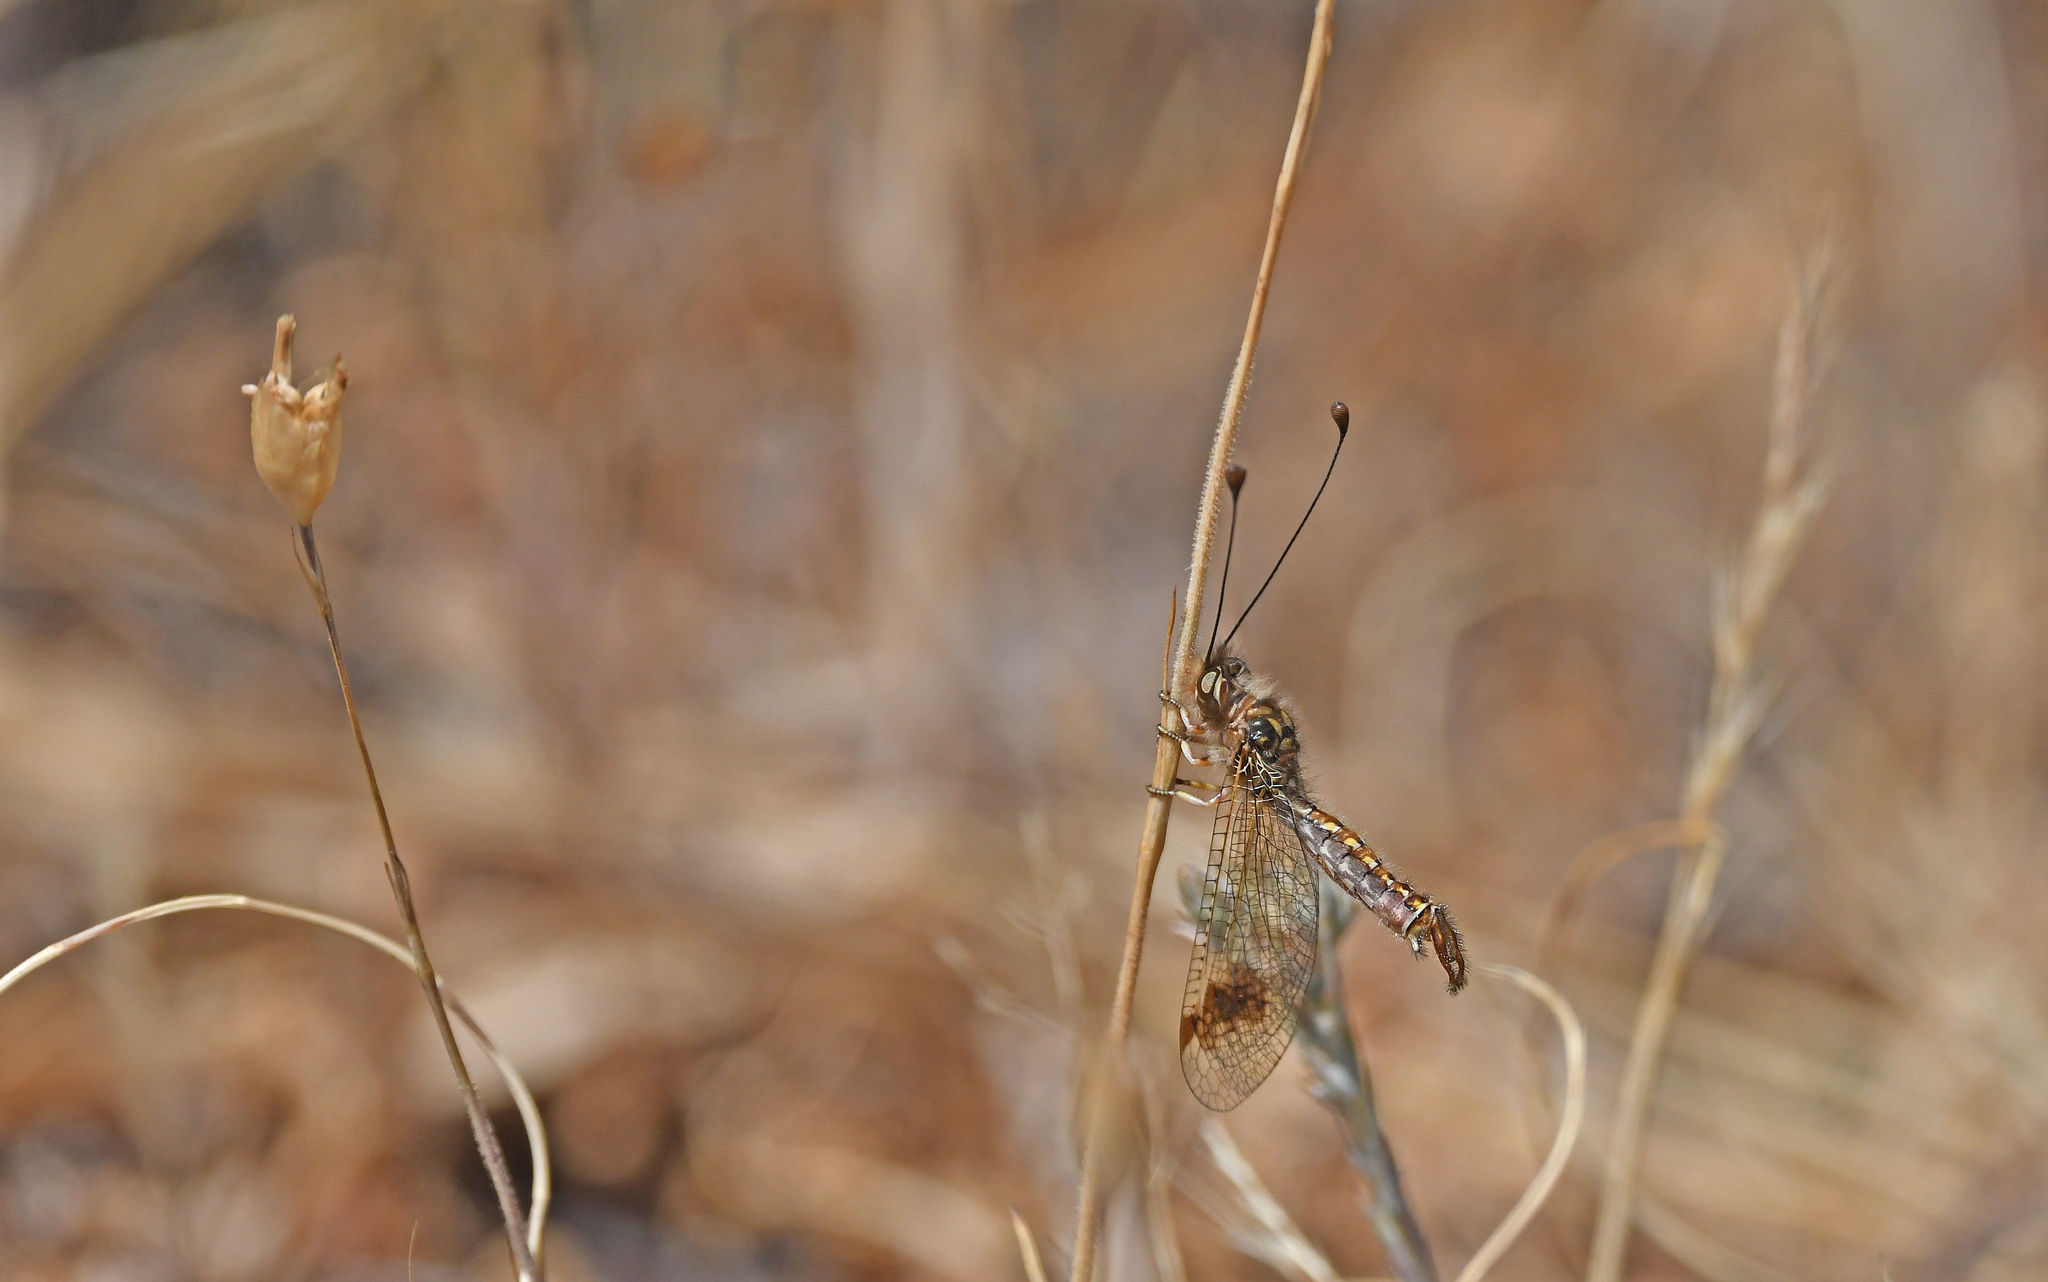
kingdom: Animalia
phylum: Arthropoda
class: Insecta
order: Neuroptera
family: Ascalaphidae
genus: Deleproctophylla
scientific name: Deleproctophylla australis
